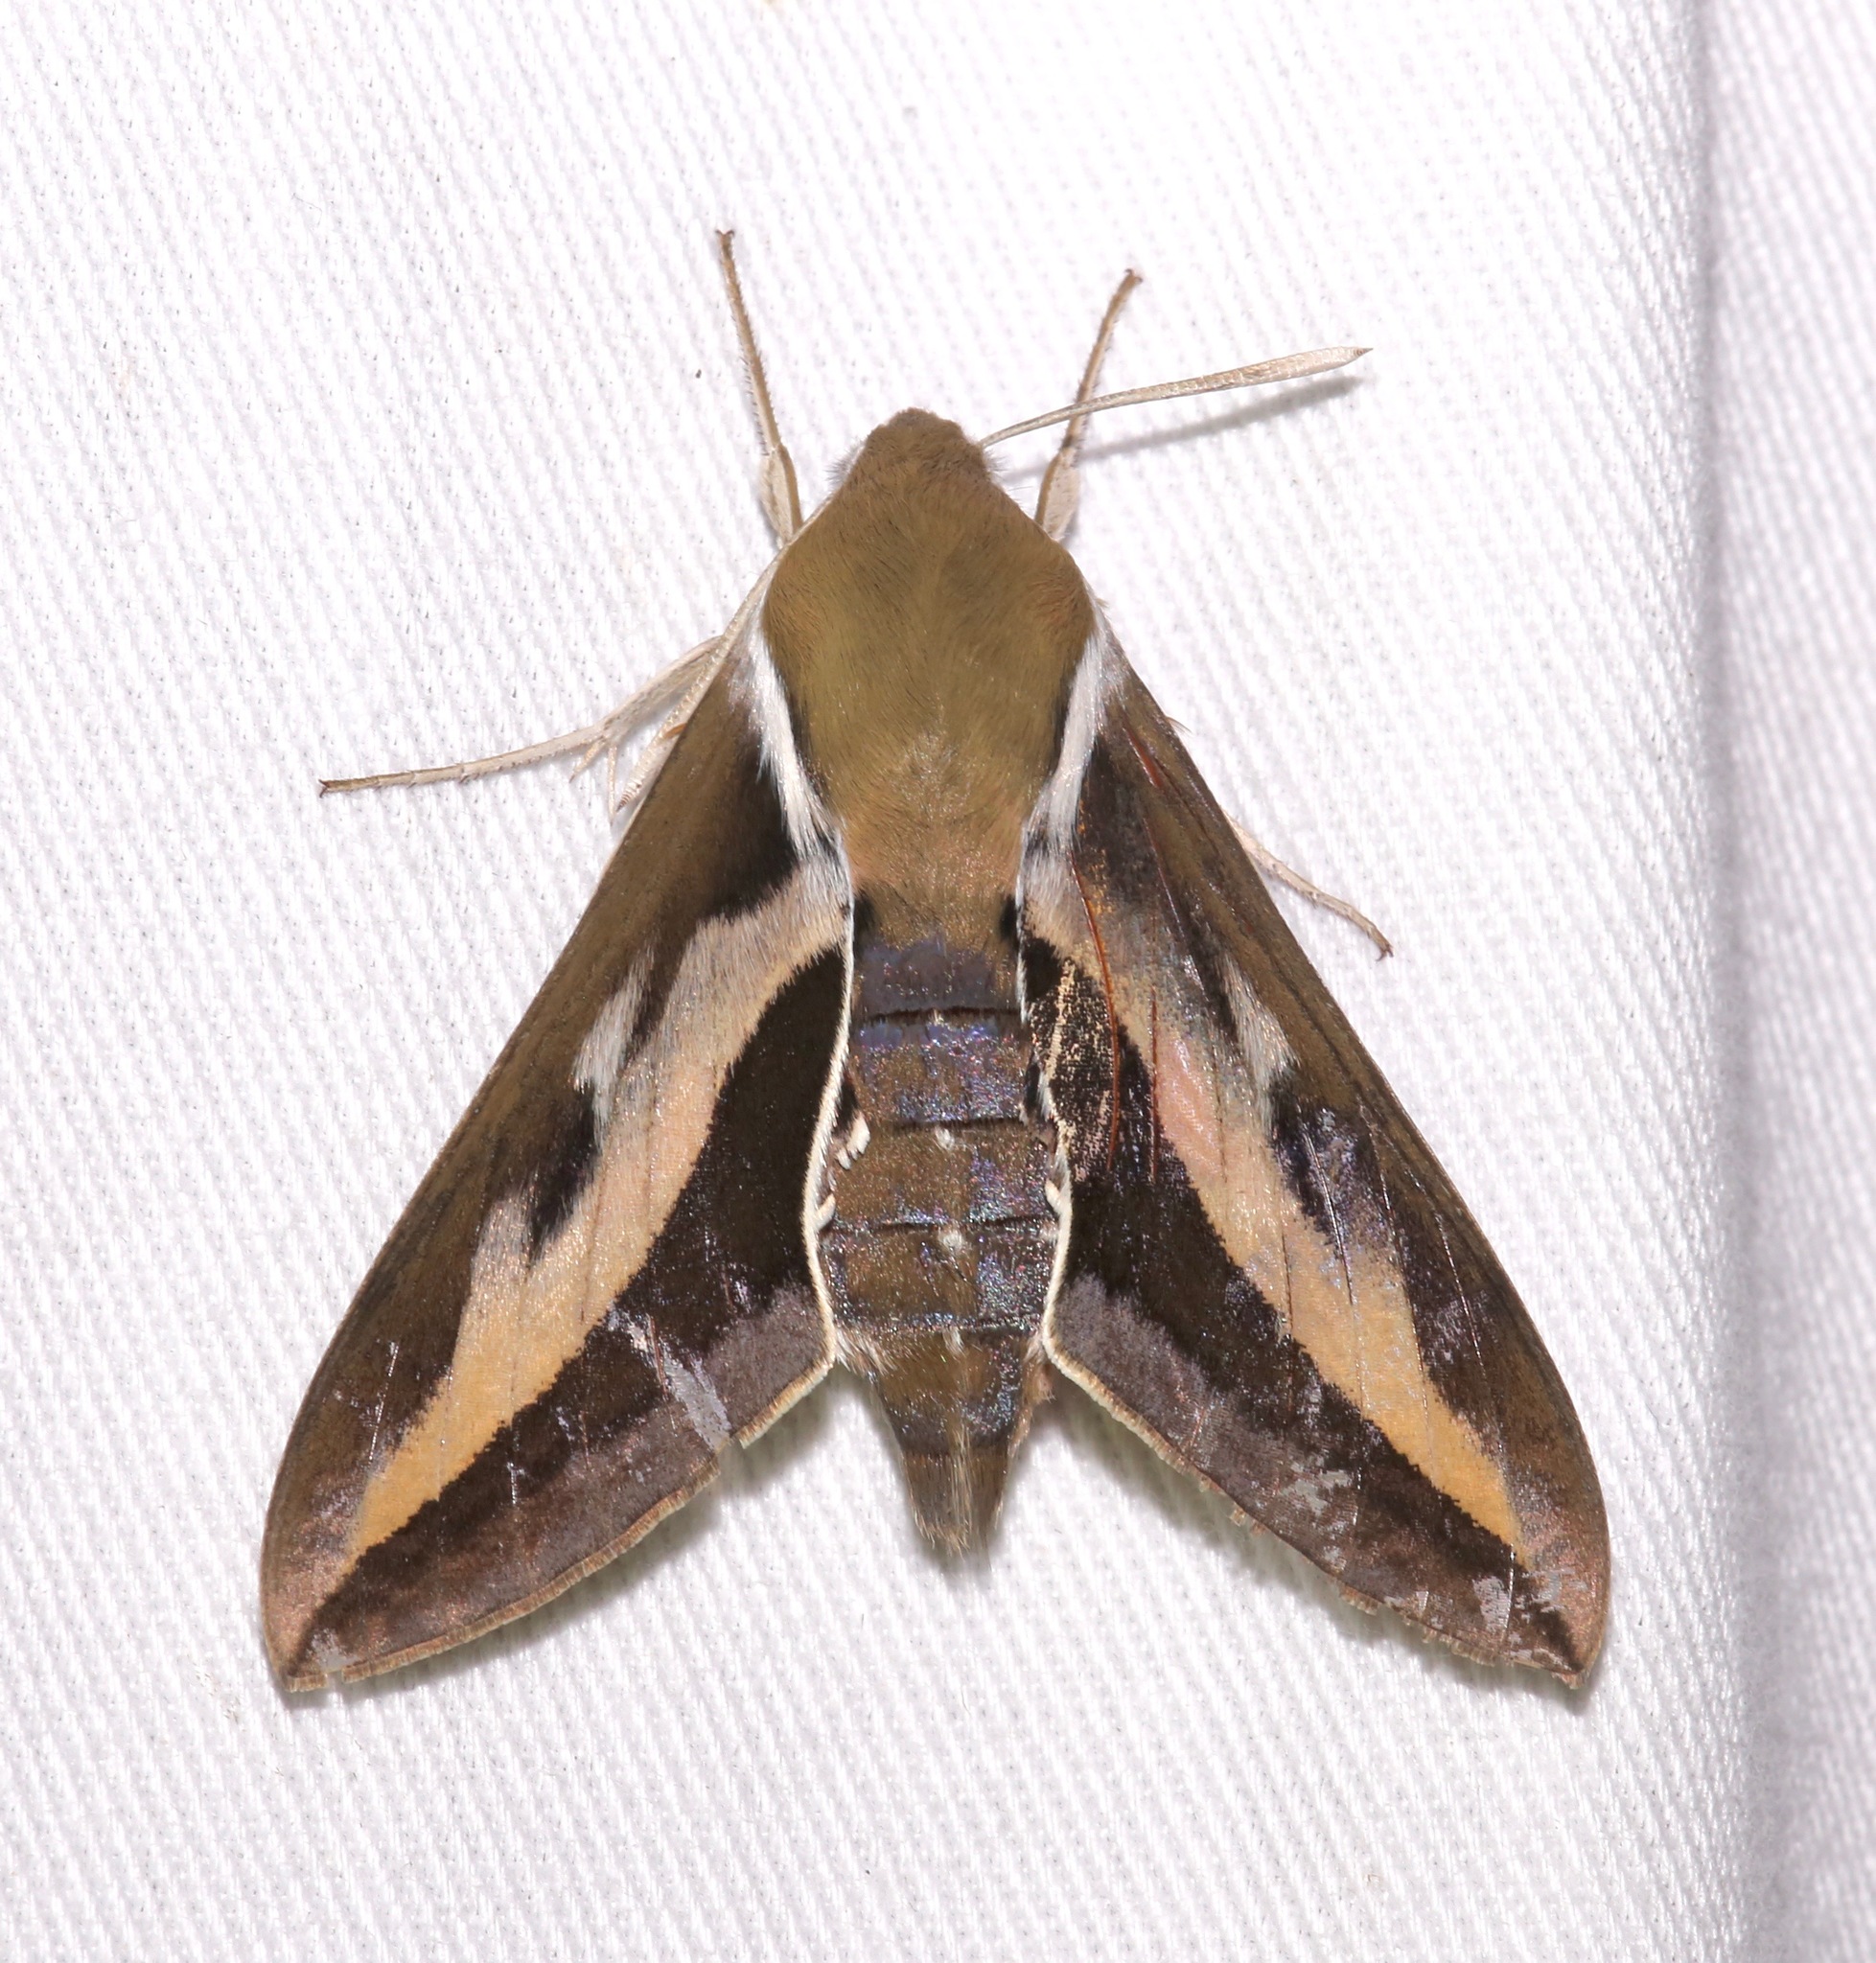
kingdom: Animalia
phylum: Arthropoda
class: Insecta
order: Lepidoptera
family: Sphingidae
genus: Hyles
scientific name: Hyles gallii
